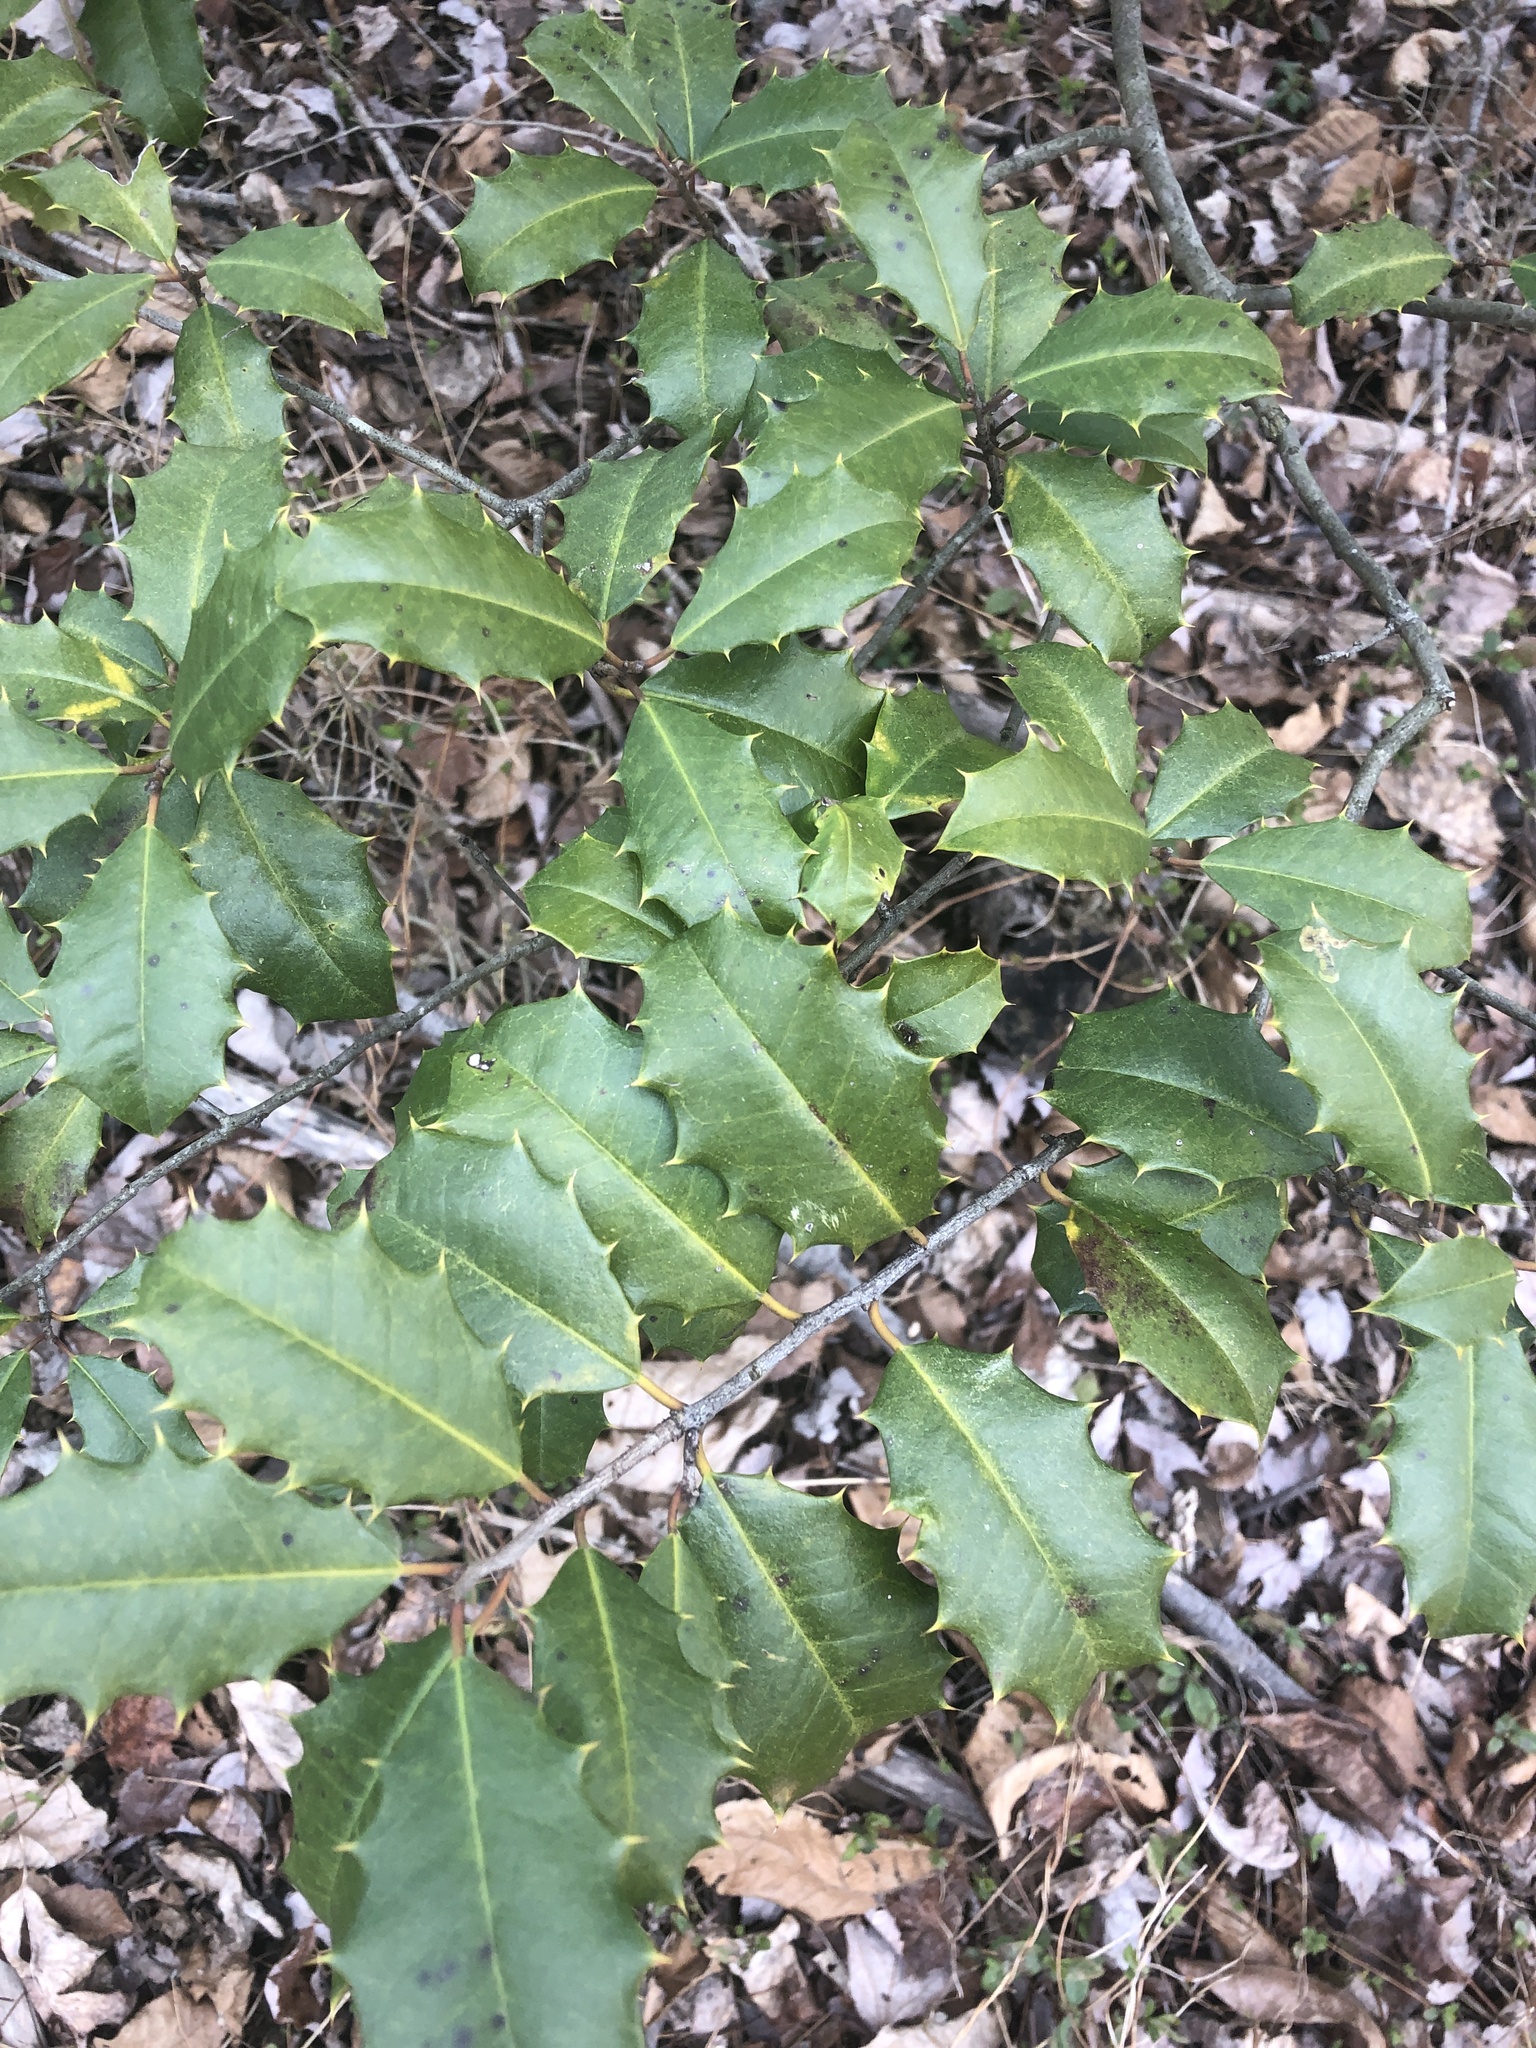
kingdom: Plantae
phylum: Tracheophyta
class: Magnoliopsida
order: Aquifoliales
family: Aquifoliaceae
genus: Ilex
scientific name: Ilex opaca
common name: American holly
